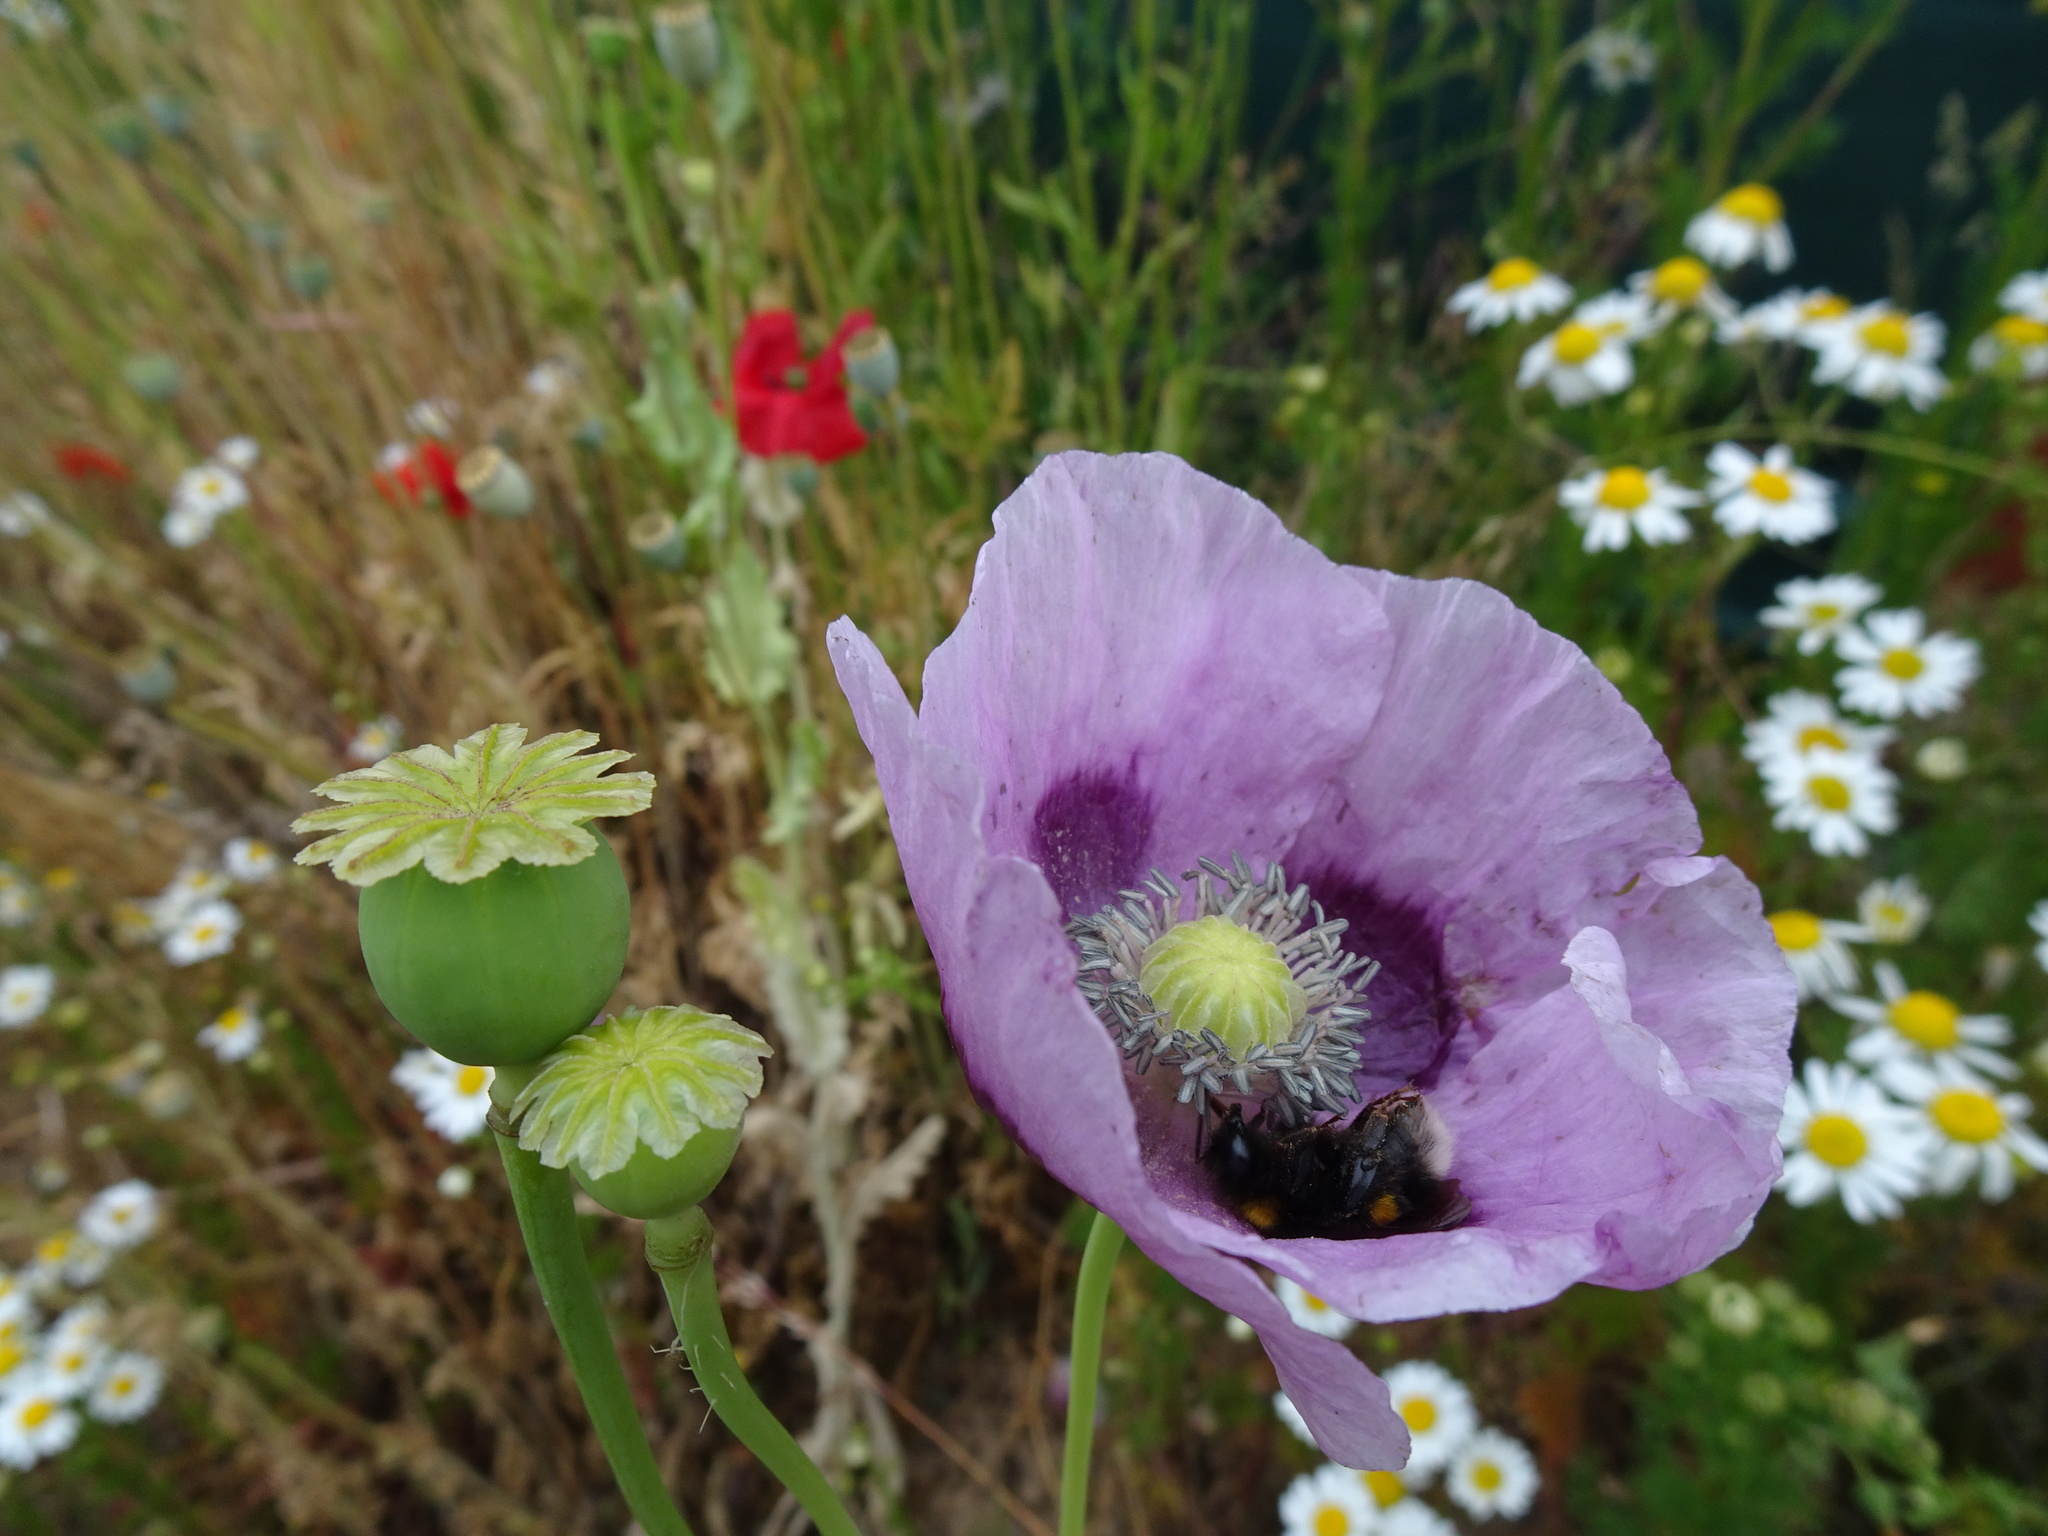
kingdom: Plantae
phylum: Tracheophyta
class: Magnoliopsida
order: Ranunculales
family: Papaveraceae
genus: Papaver
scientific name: Papaver somniferum
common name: Opium poppy
